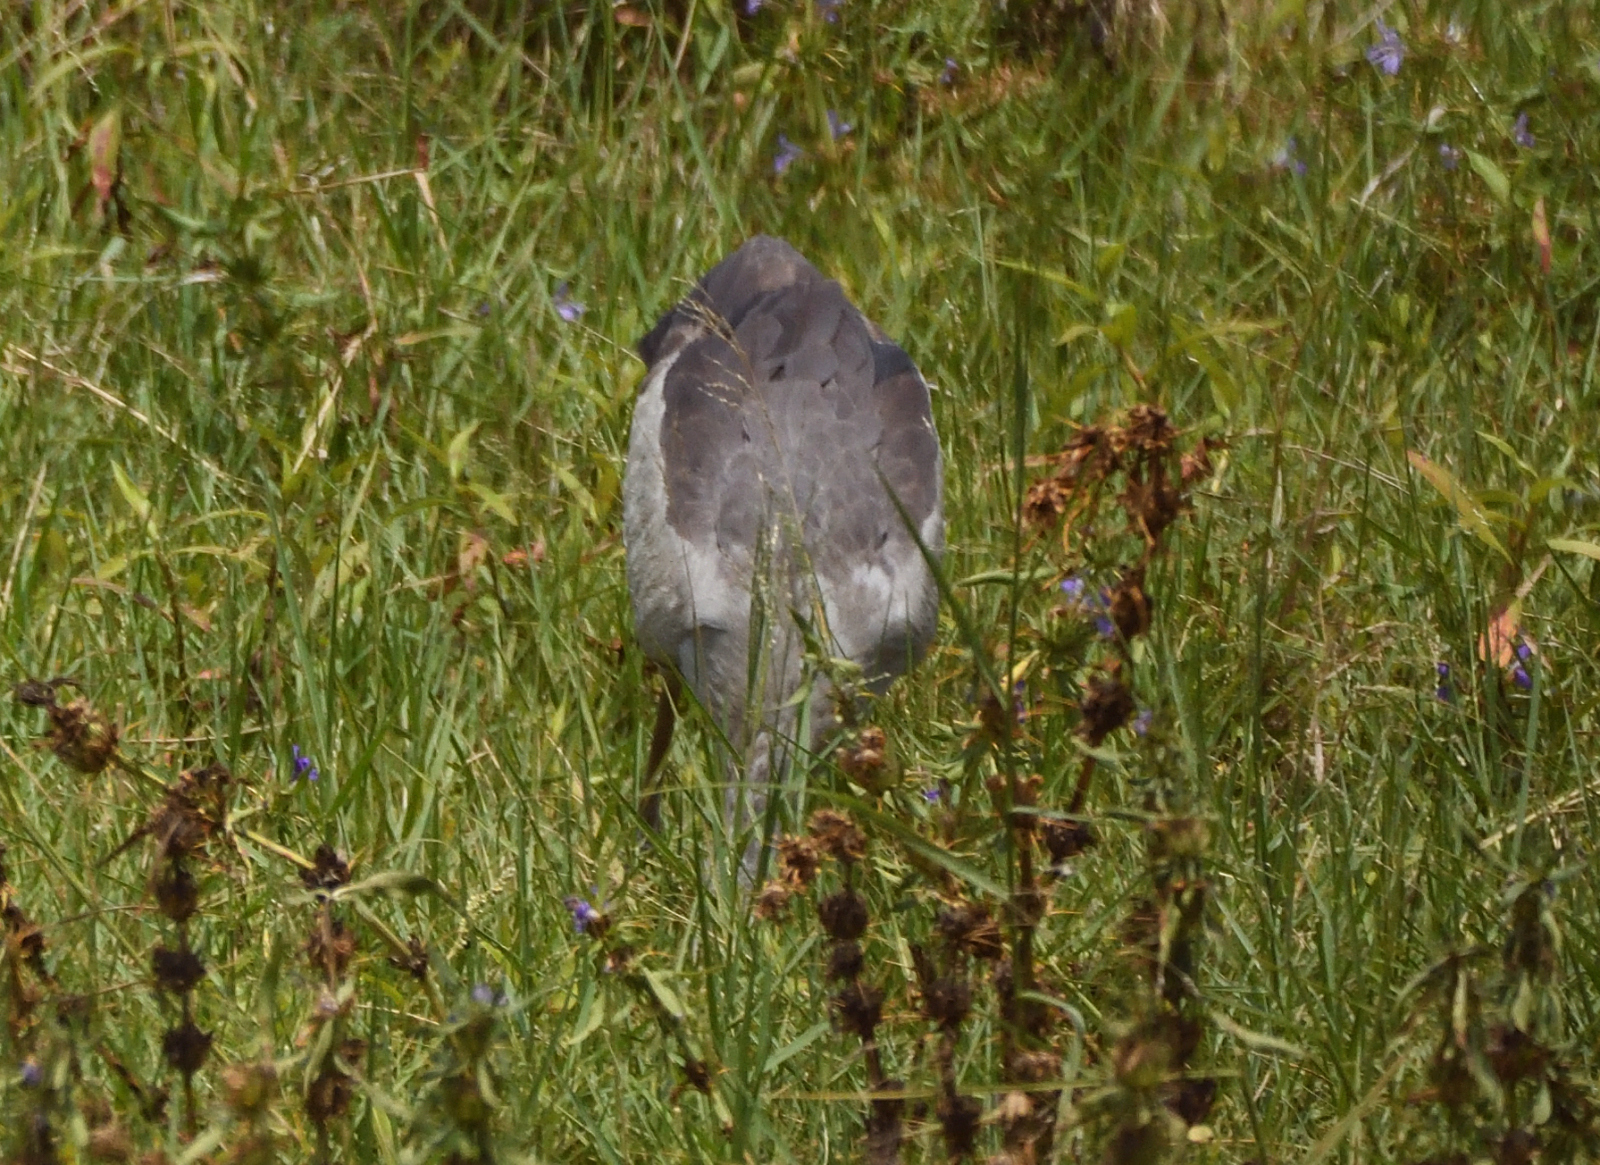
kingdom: Animalia
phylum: Chordata
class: Aves
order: Ciconiiformes
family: Ciconiidae
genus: Anastomus
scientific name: Anastomus oscitans
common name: Asian openbill
